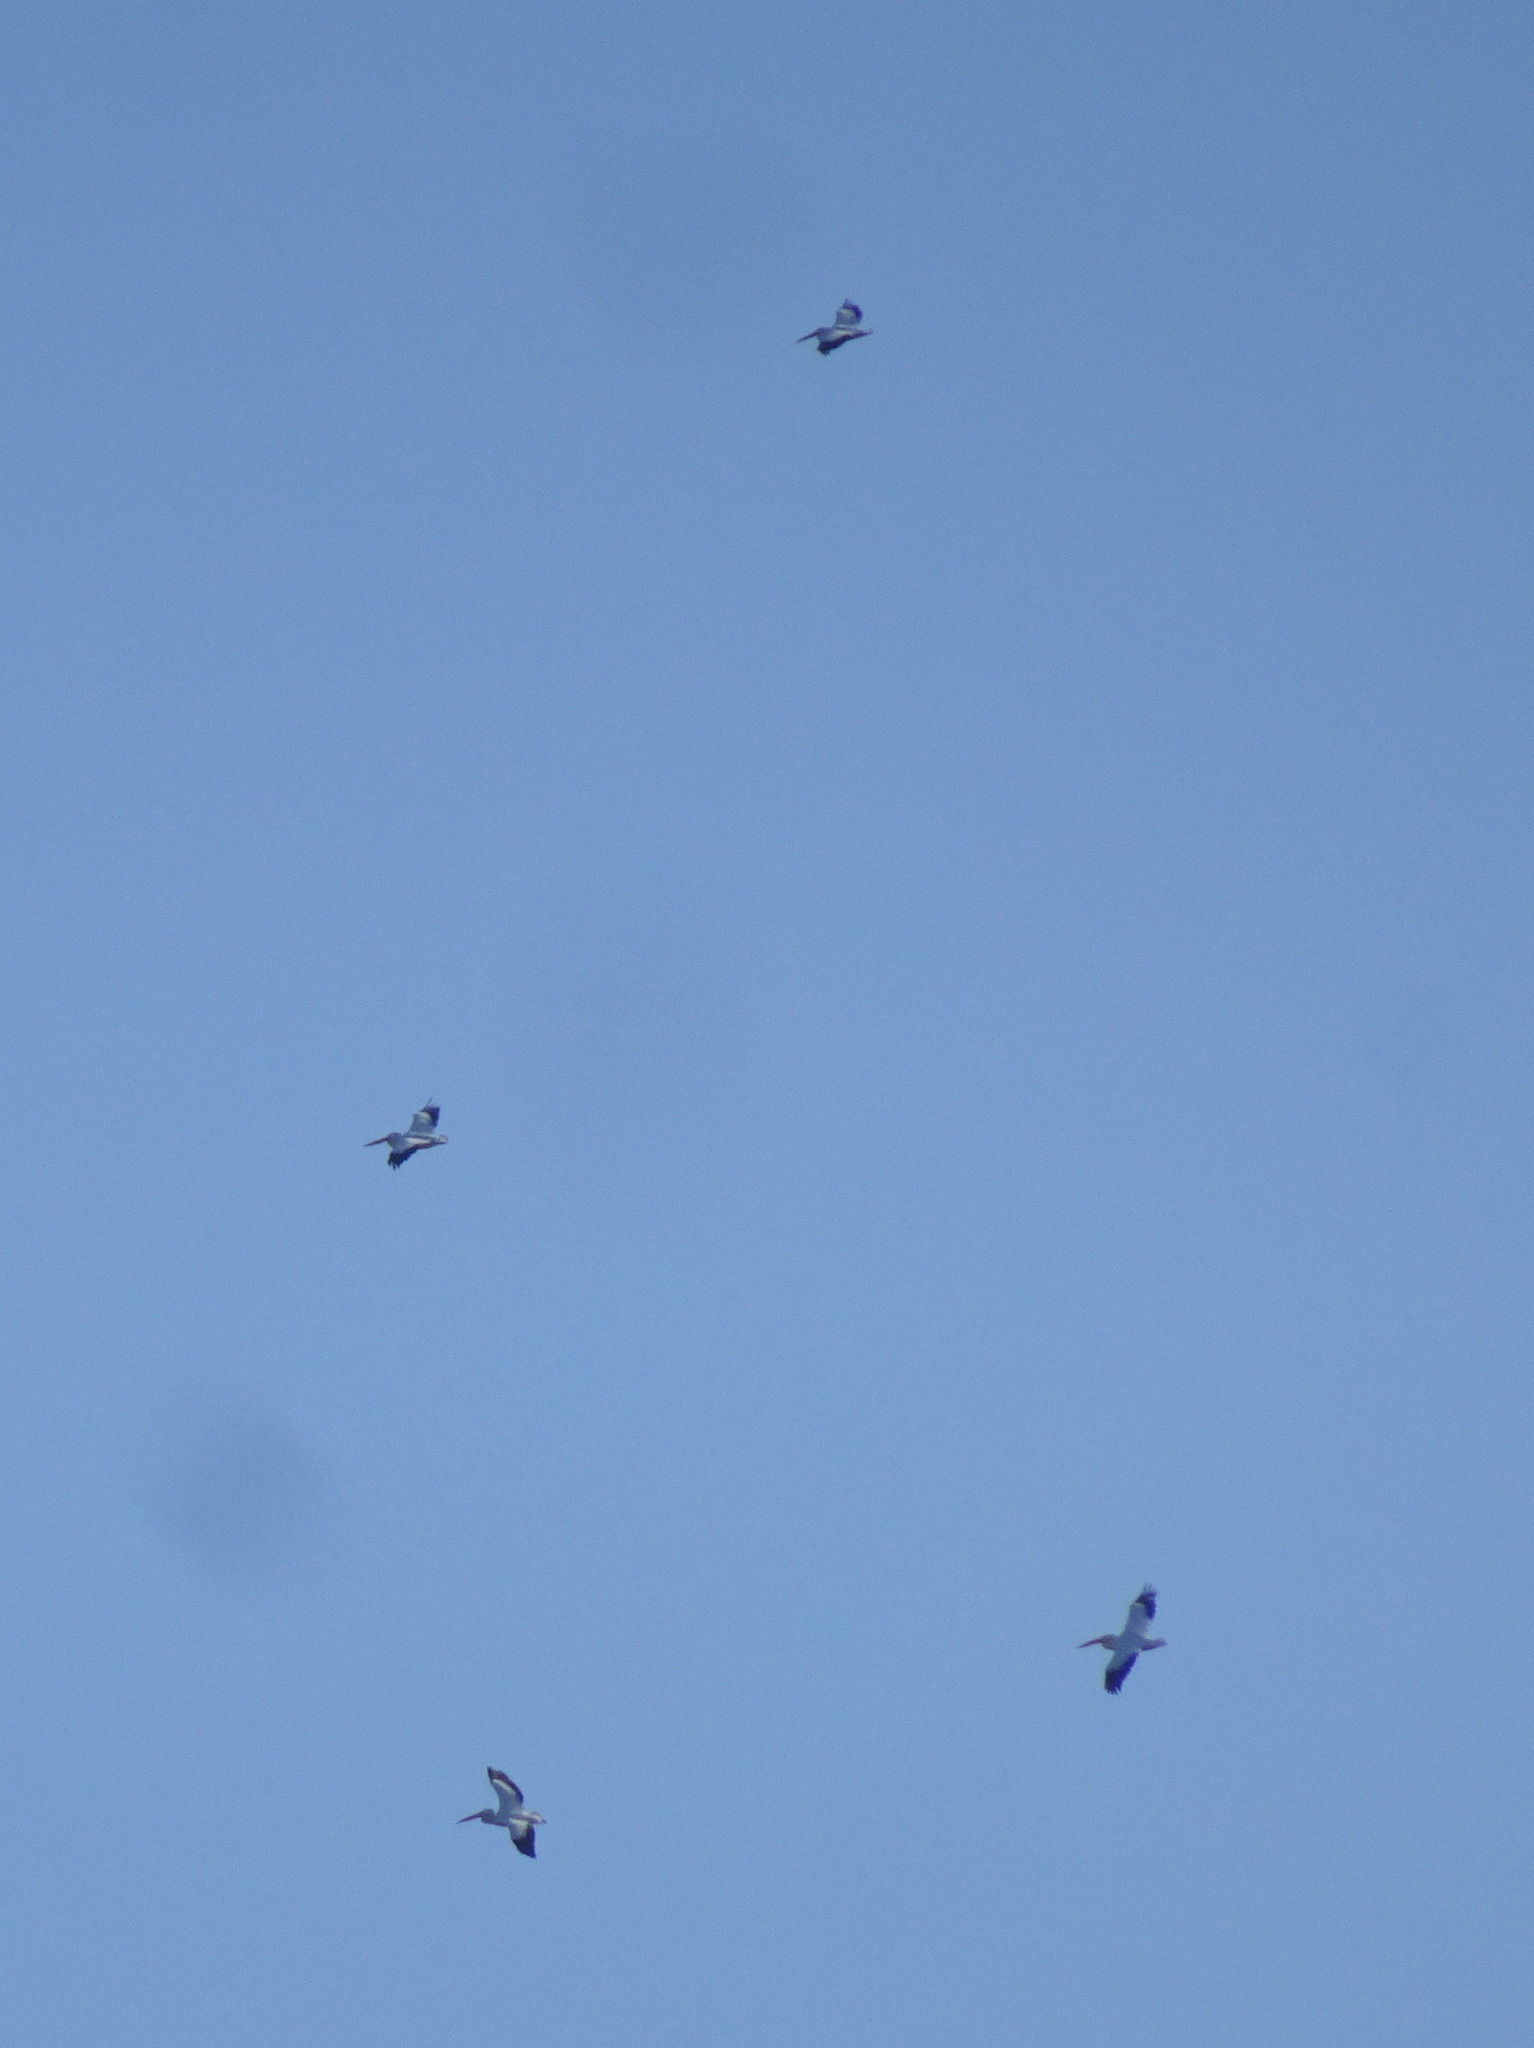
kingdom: Animalia
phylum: Chordata
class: Aves
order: Pelecaniformes
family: Pelecanidae
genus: Pelecanus
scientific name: Pelecanus erythrorhynchos
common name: American white pelican
